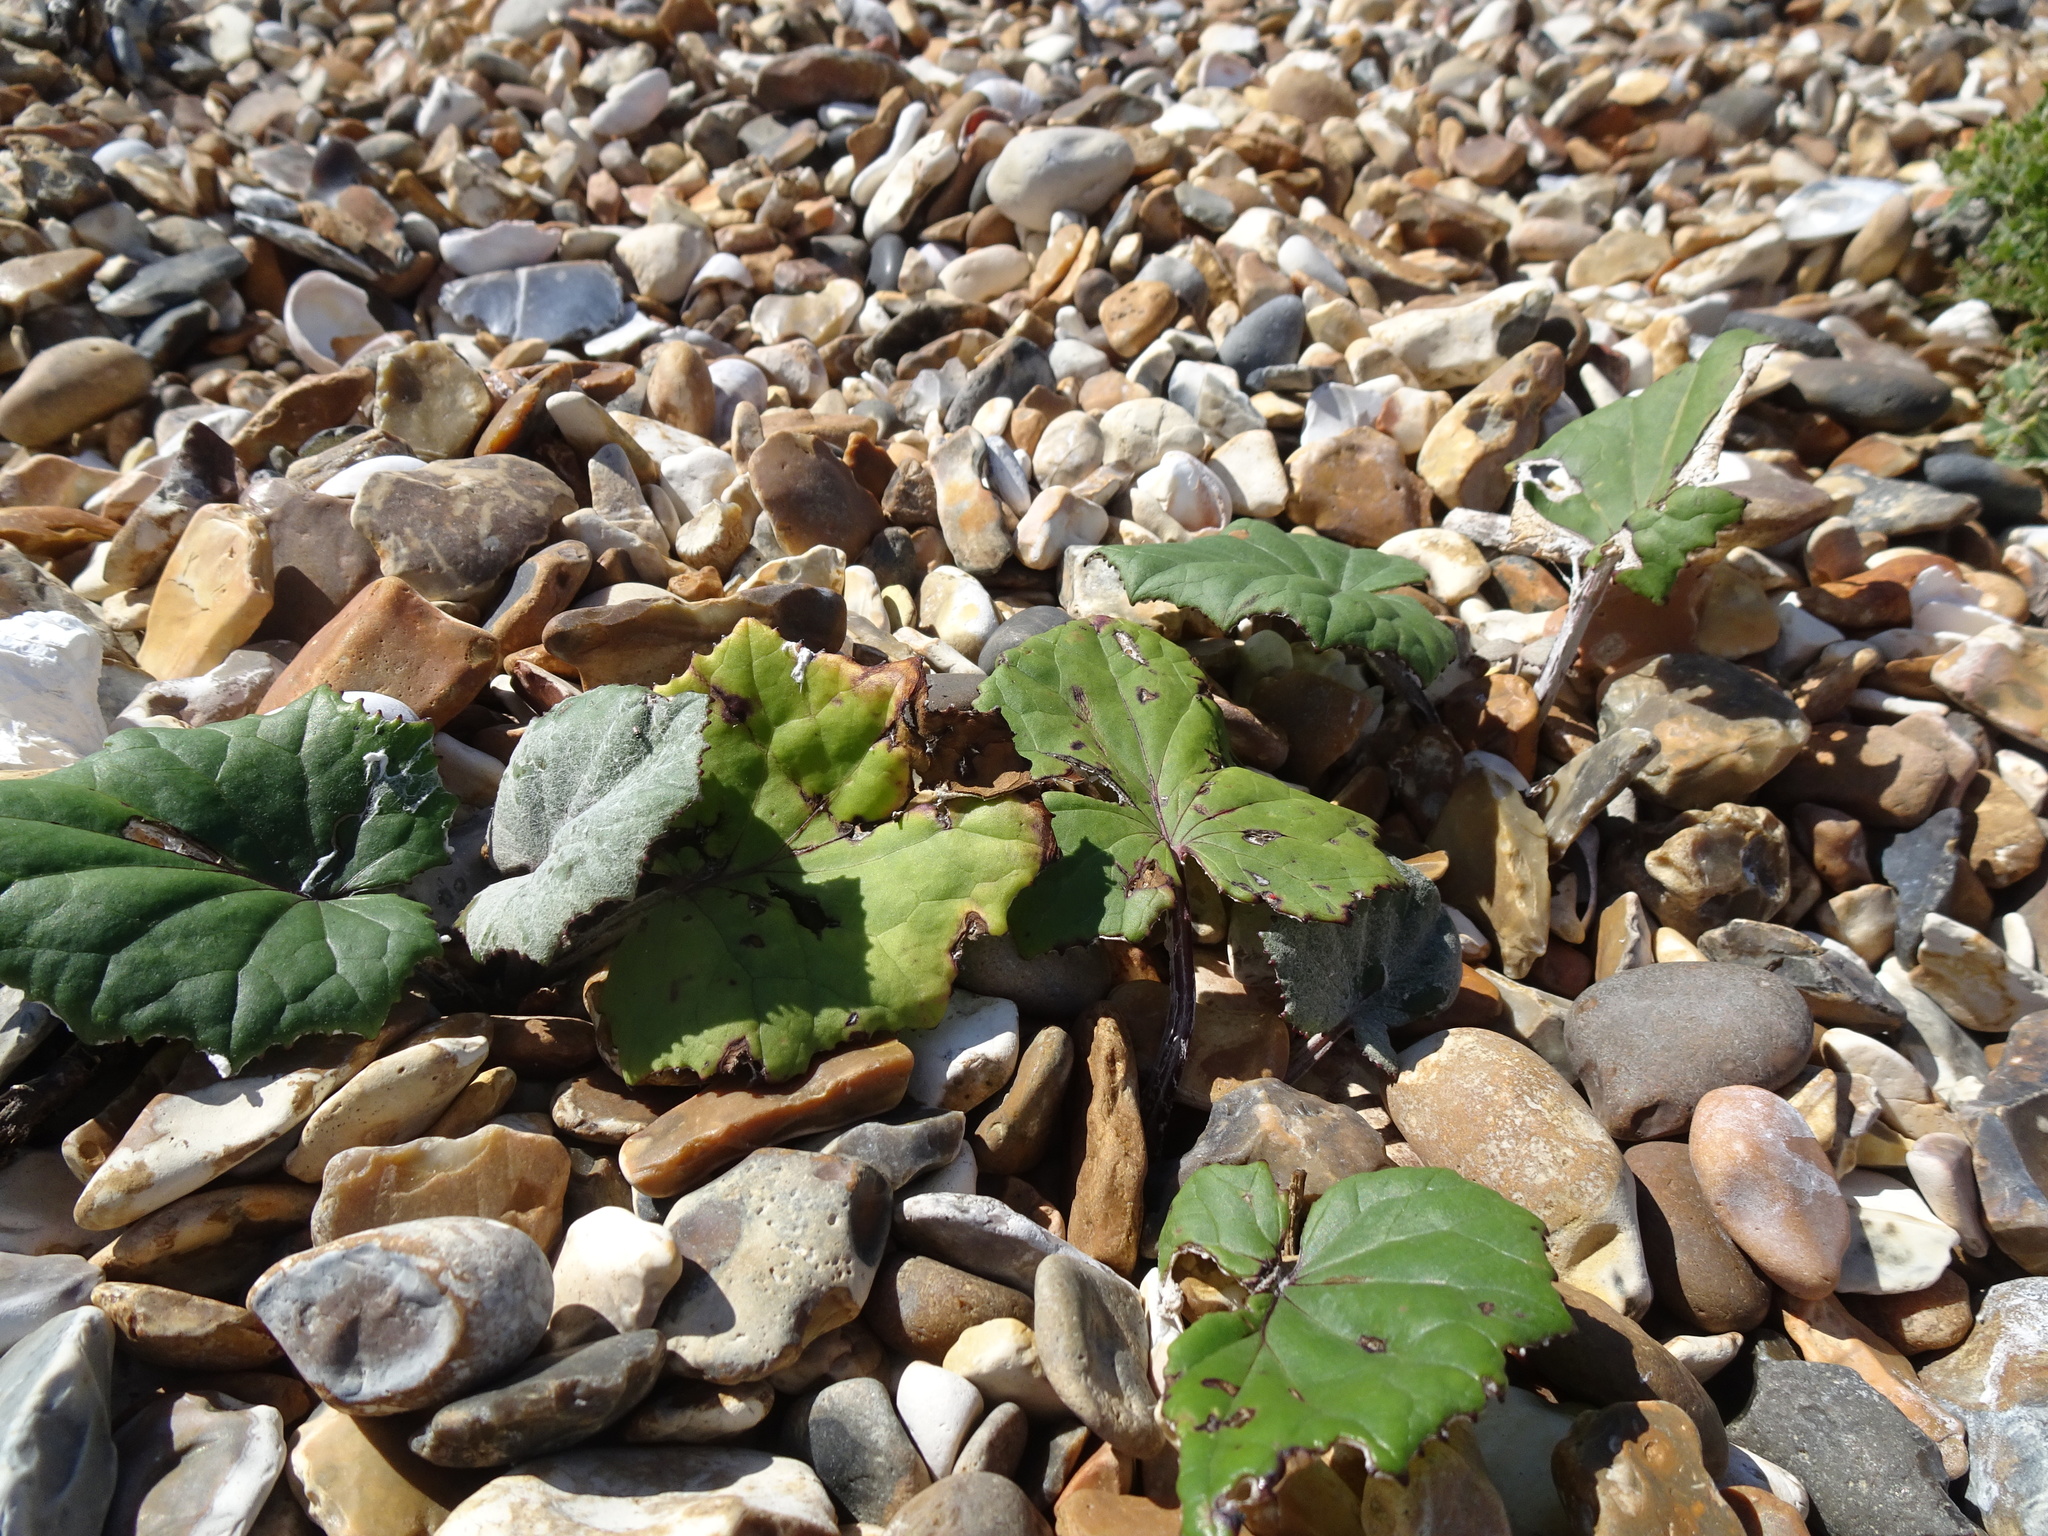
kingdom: Plantae
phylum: Tracheophyta
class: Magnoliopsida
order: Asterales
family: Asteraceae
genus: Tussilago
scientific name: Tussilago farfara
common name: Coltsfoot
